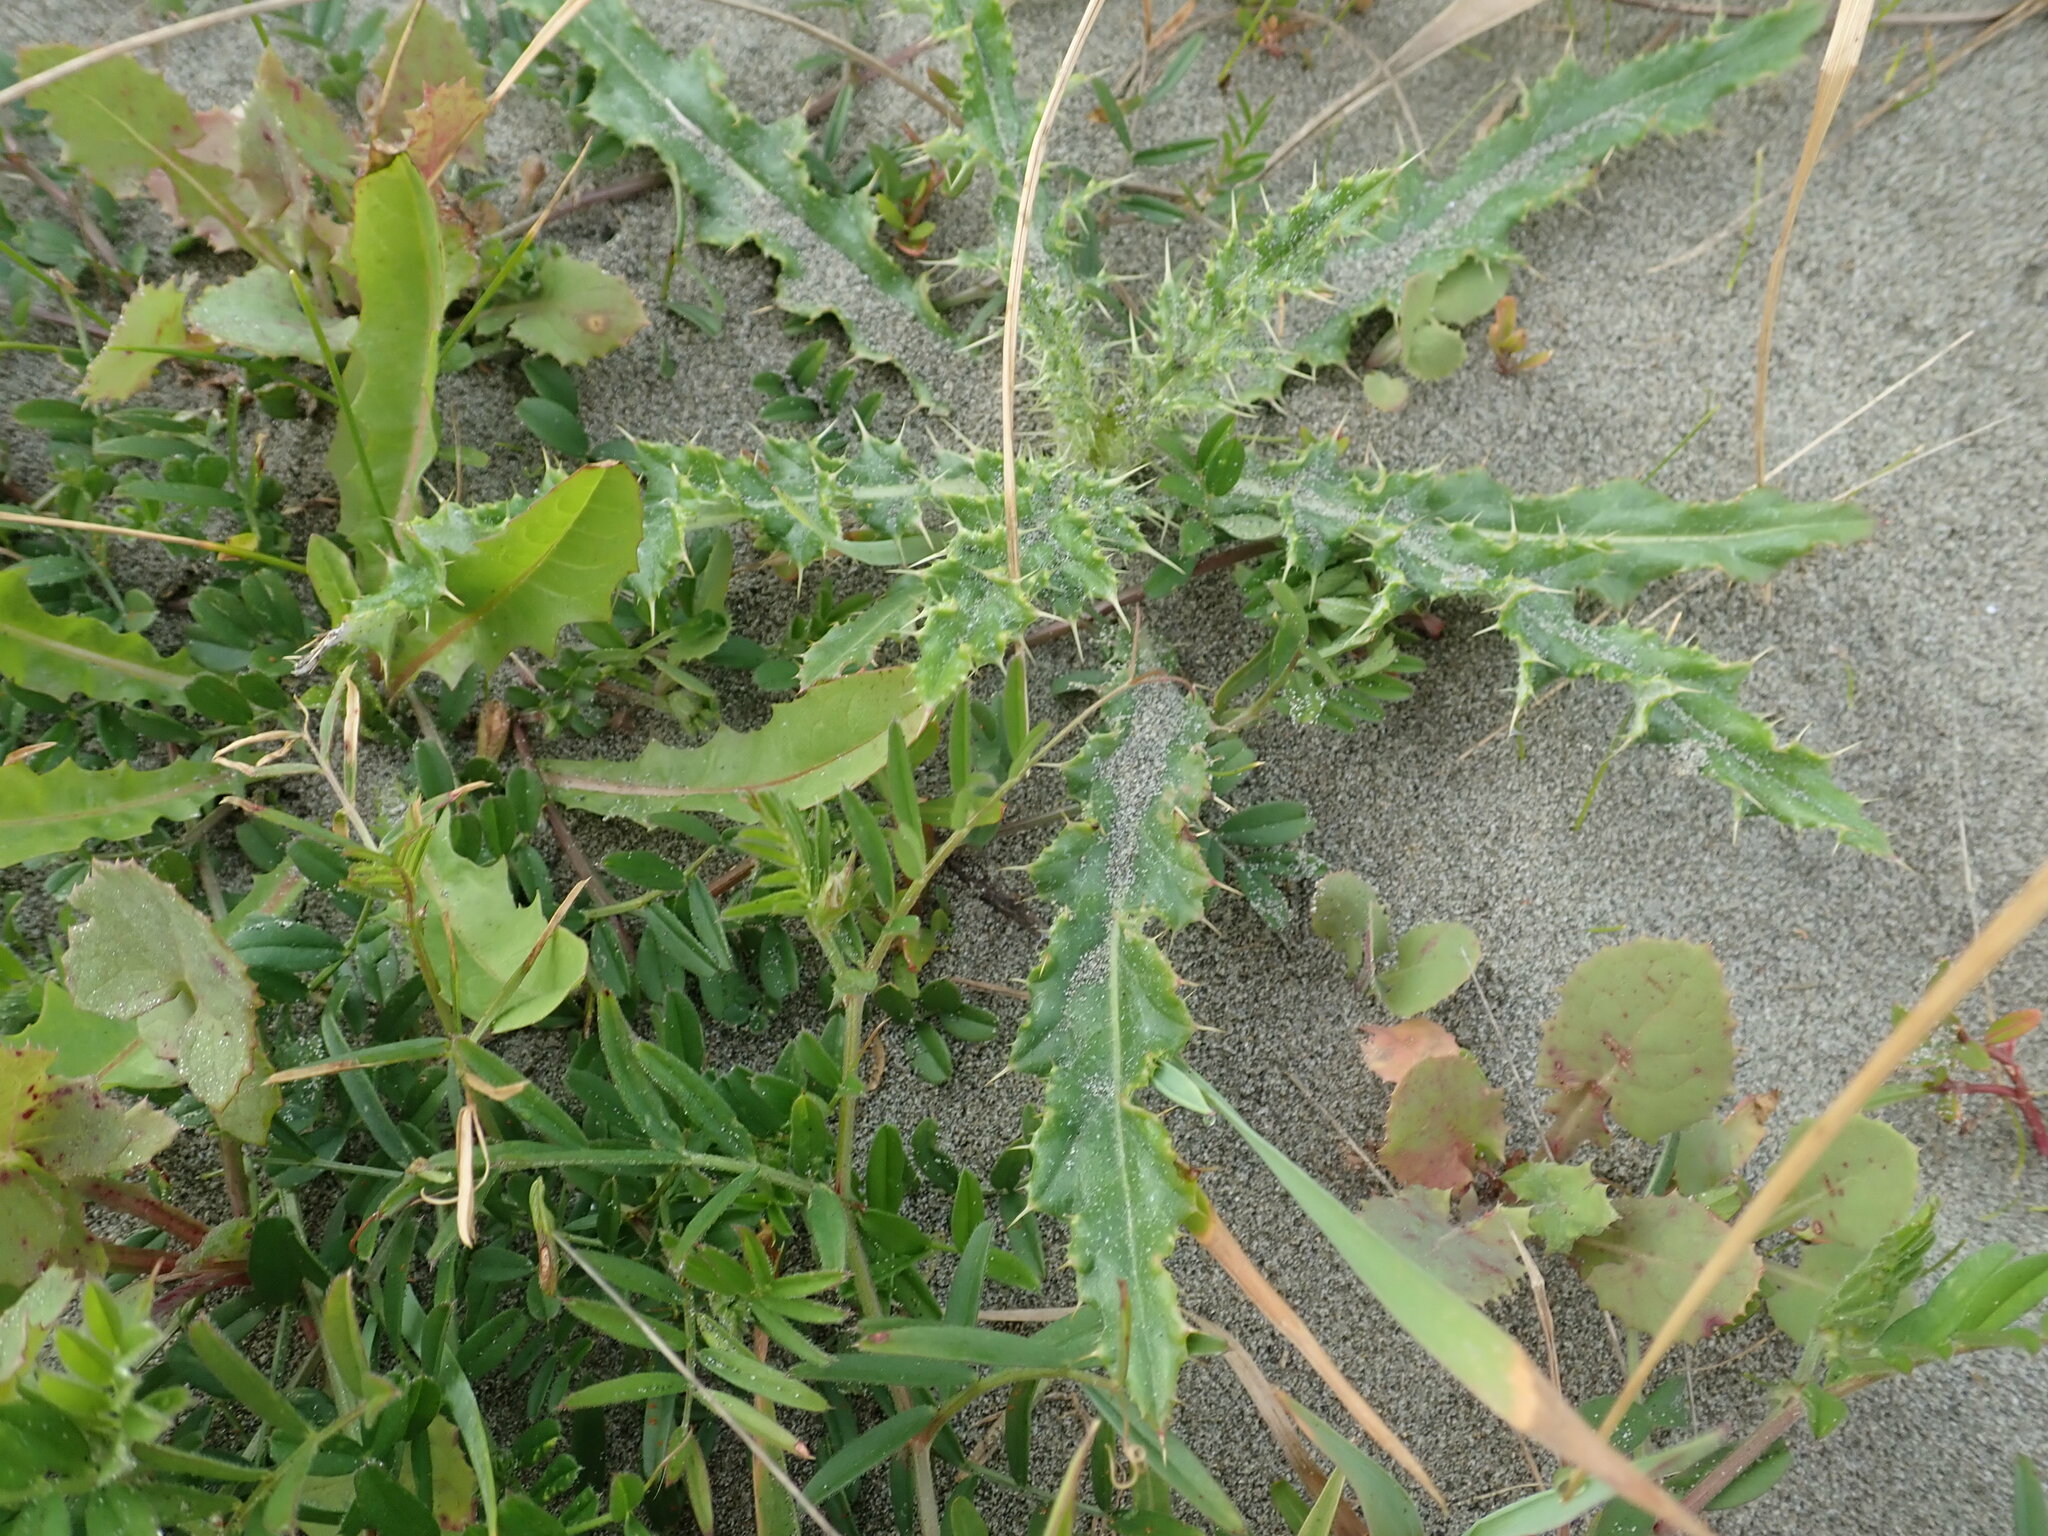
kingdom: Plantae
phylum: Tracheophyta
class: Magnoliopsida
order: Asterales
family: Asteraceae
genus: Cirsium
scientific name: Cirsium arvense
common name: Creeping thistle
